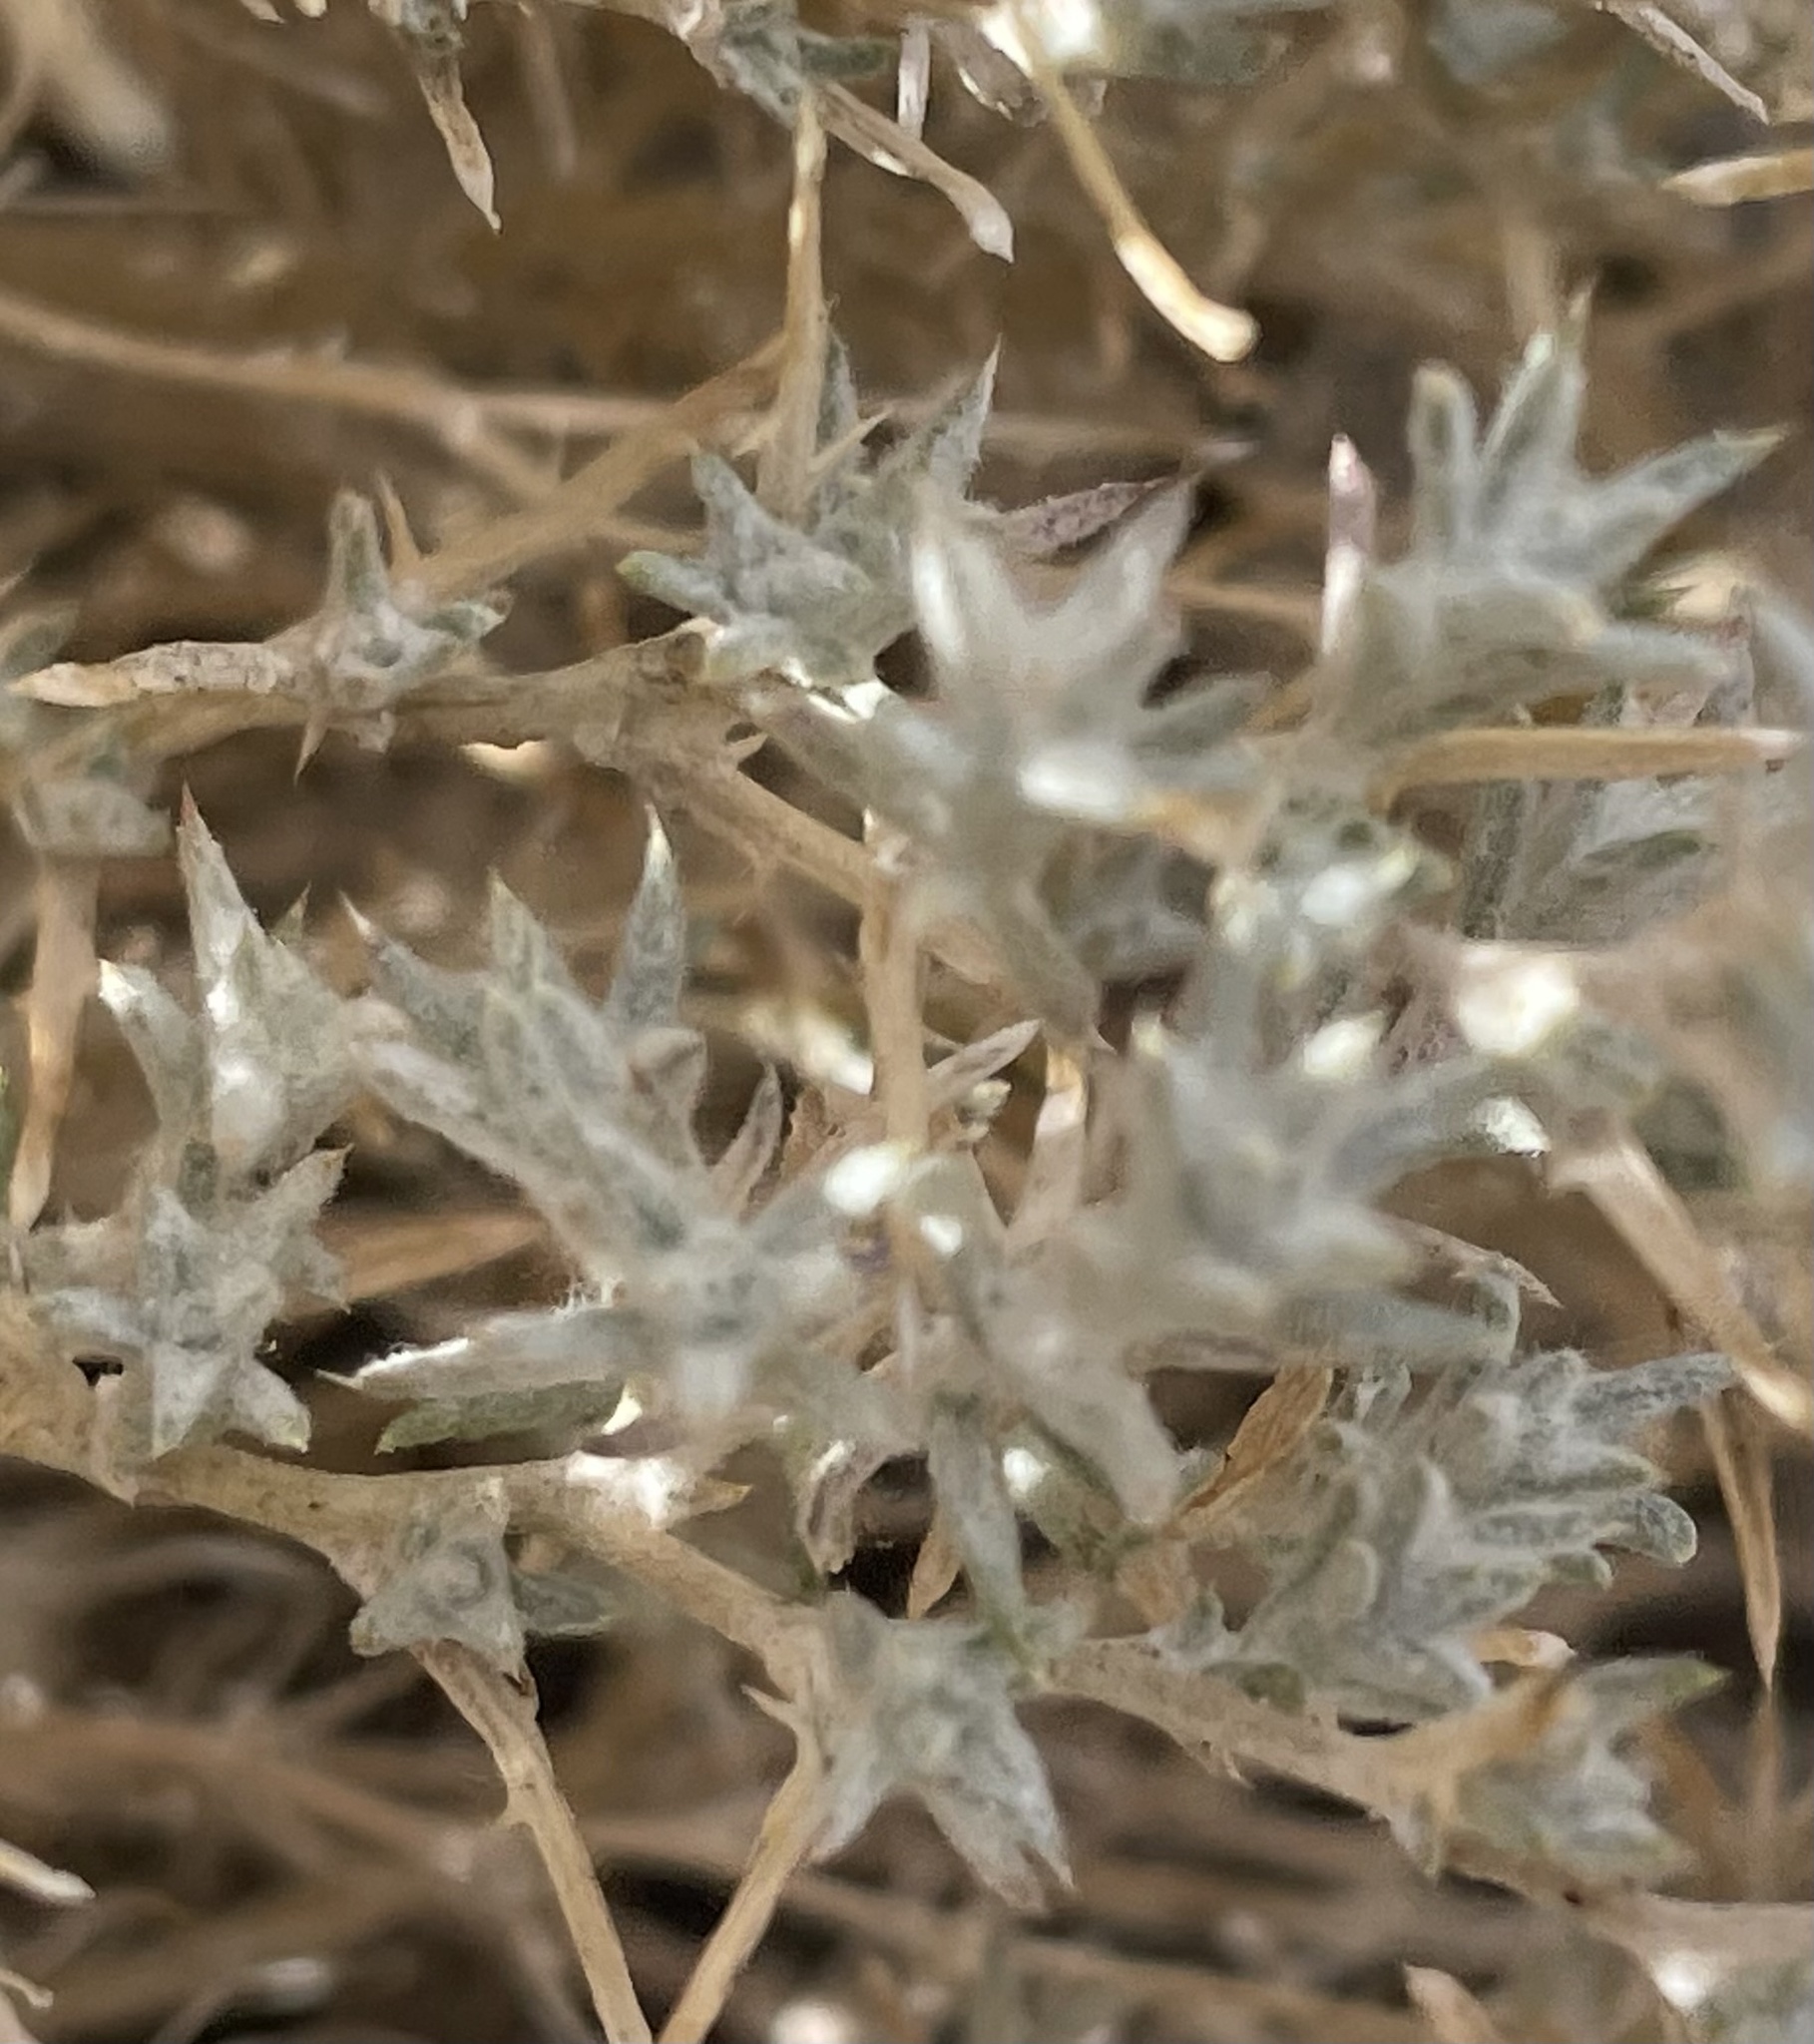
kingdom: Plantae
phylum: Tracheophyta
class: Magnoliopsida
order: Ericales
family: Polemoniaceae
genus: Eriastrum
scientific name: Eriastrum densifolium
